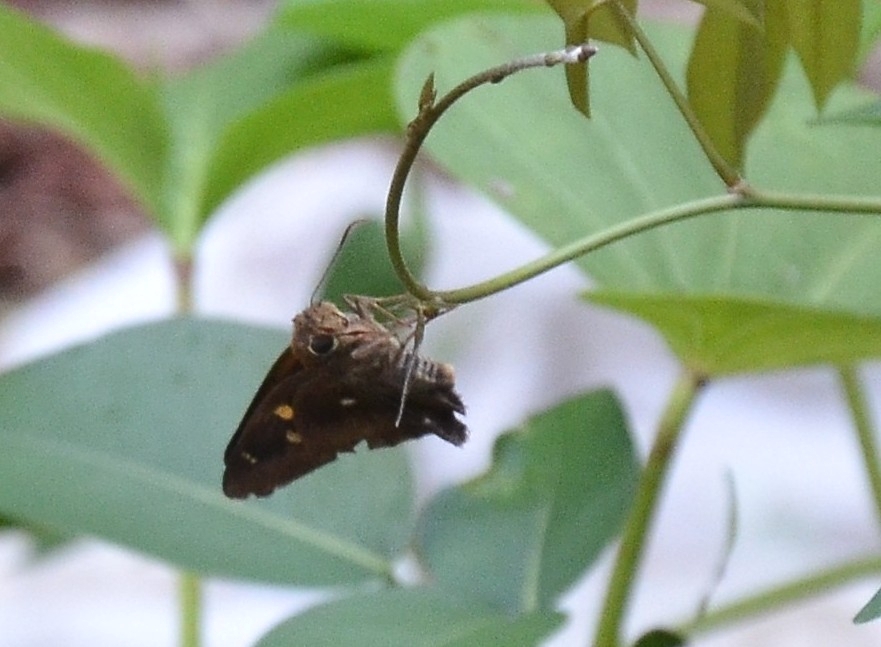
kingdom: Animalia
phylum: Arthropoda
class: Insecta
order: Lepidoptera
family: Hesperiidae
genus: Hasora
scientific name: Hasora badra
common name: Common awl
